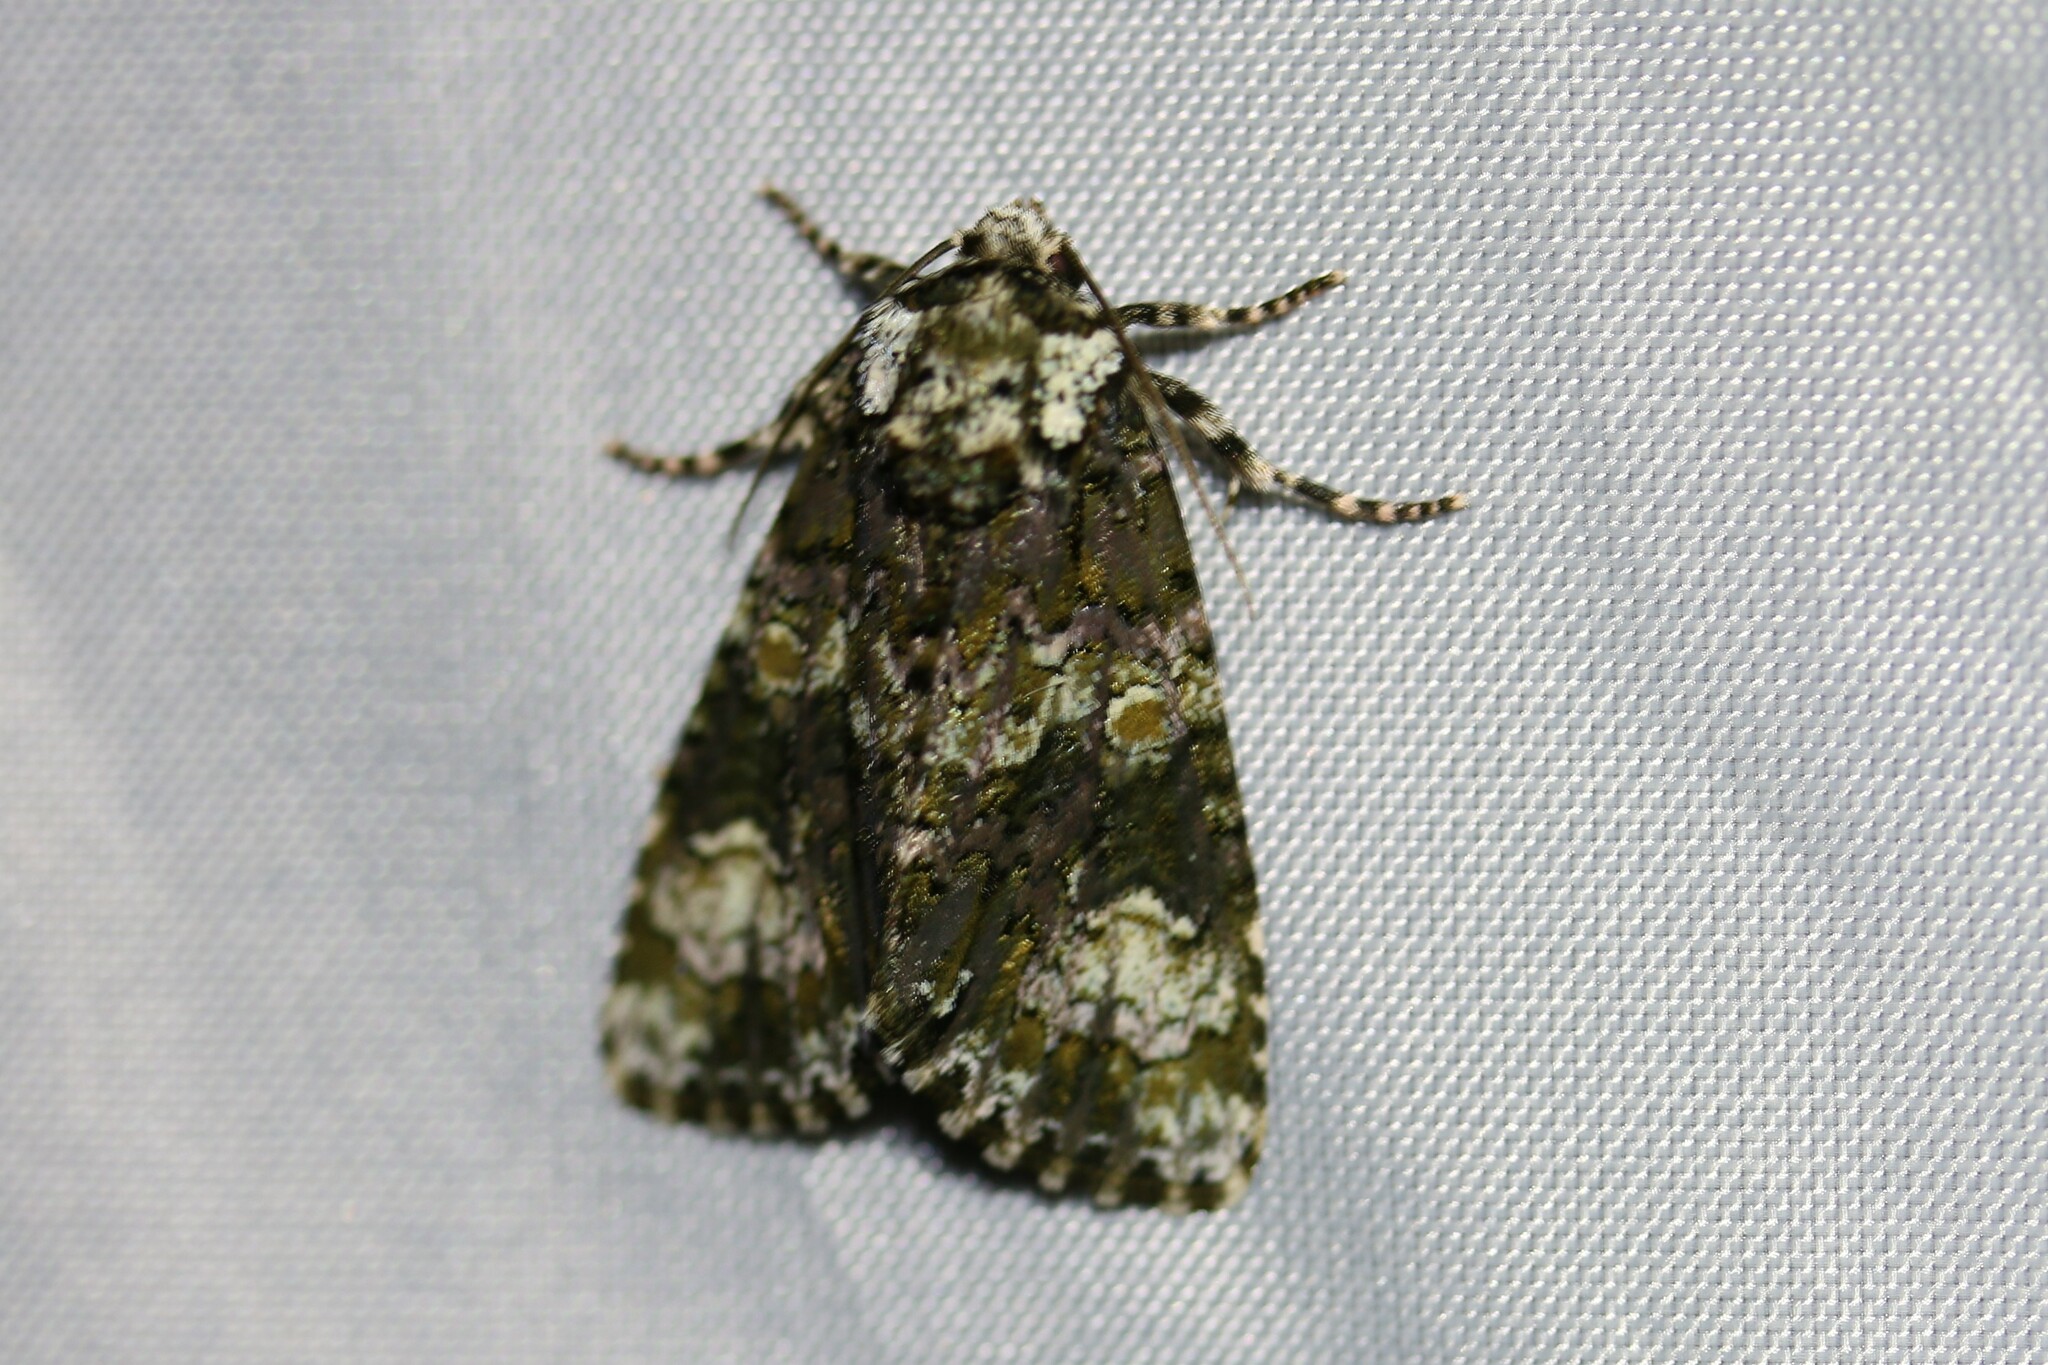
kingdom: Animalia
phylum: Arthropoda
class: Insecta
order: Lepidoptera
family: Noctuidae
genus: Craniophora
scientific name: Craniophora ligustri
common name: Coronet
